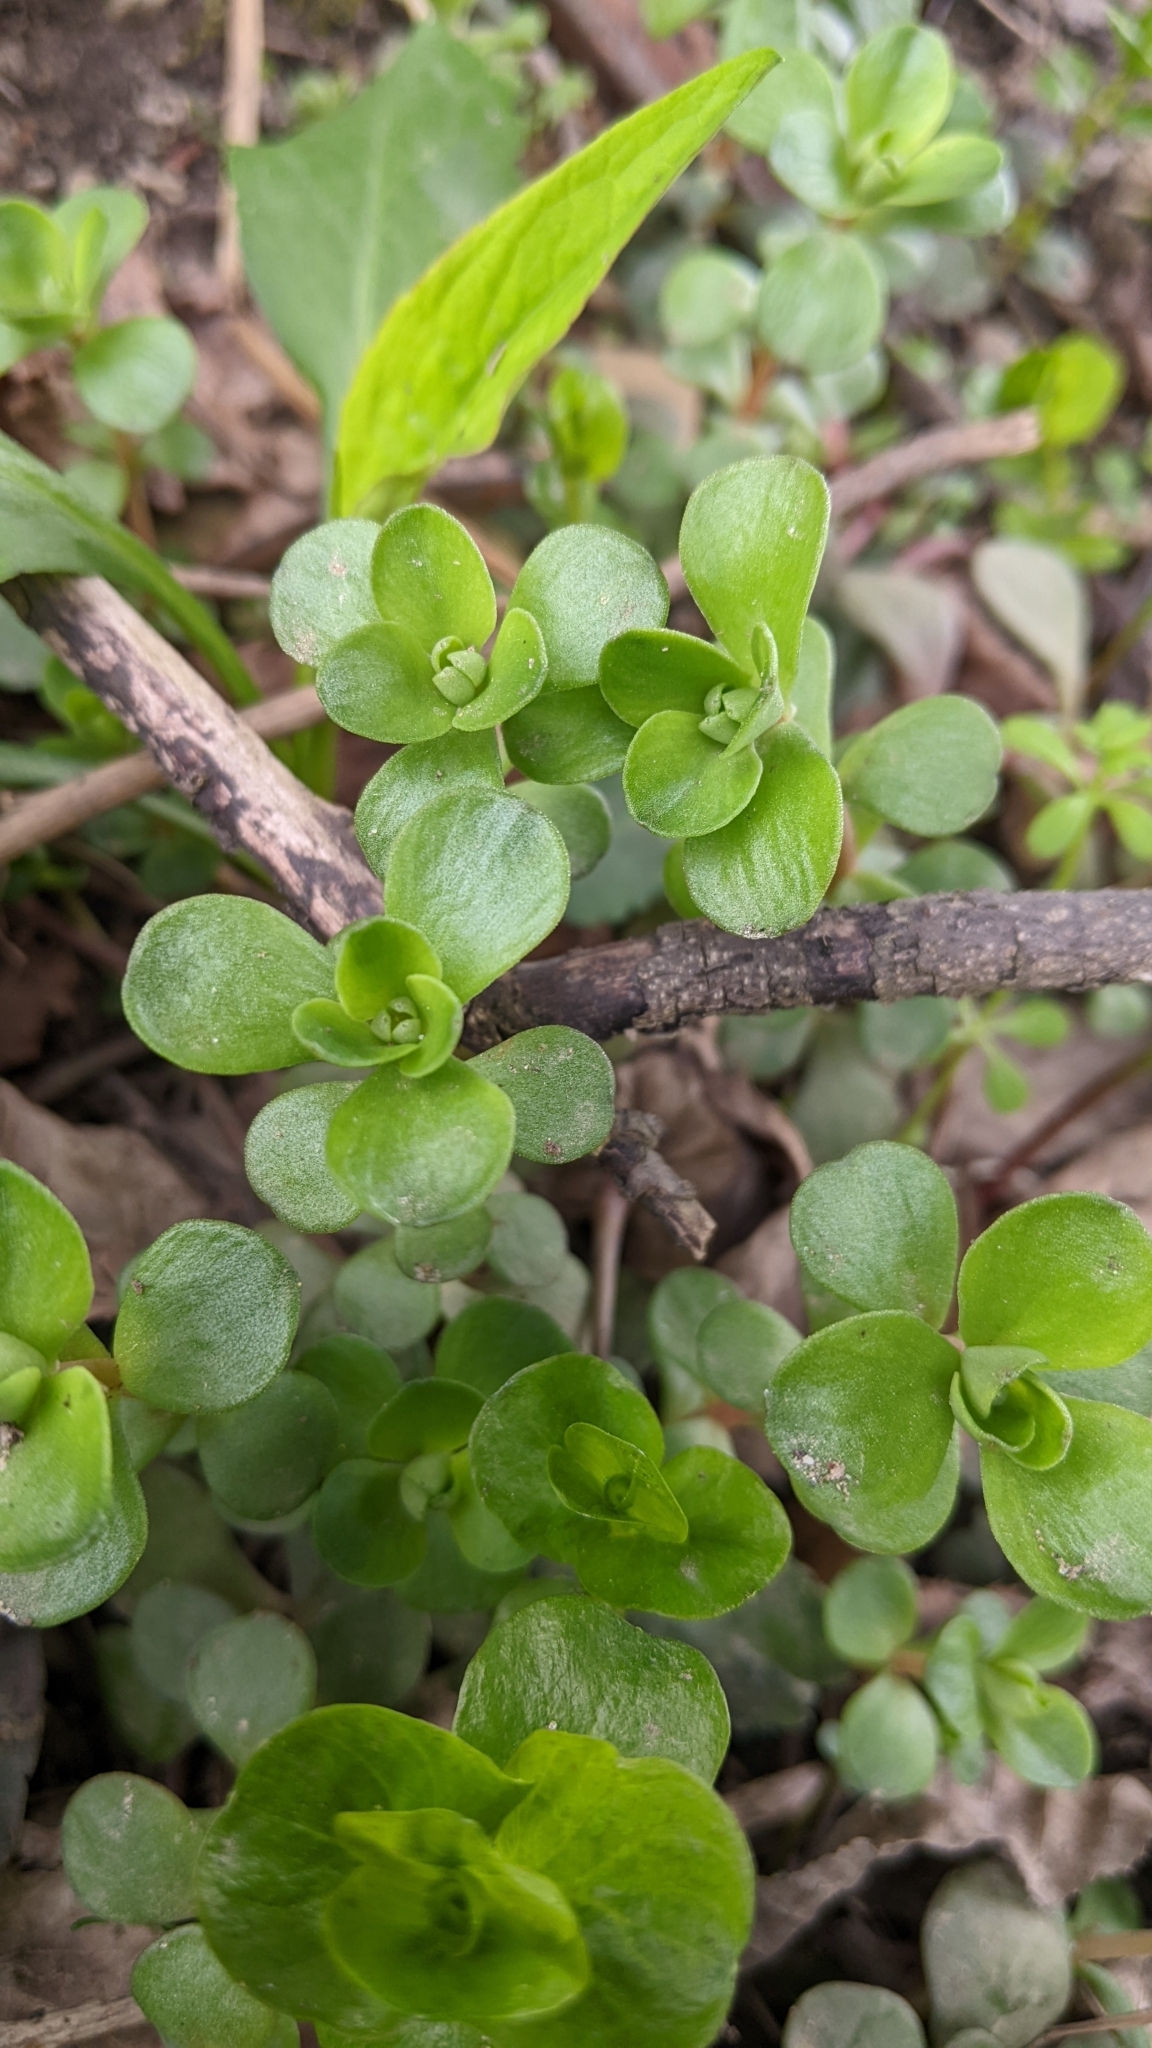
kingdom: Plantae
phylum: Tracheophyta
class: Magnoliopsida
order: Saxifragales
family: Crassulaceae
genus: Sedum
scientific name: Sedum ternatum
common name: Wild stonecrop
